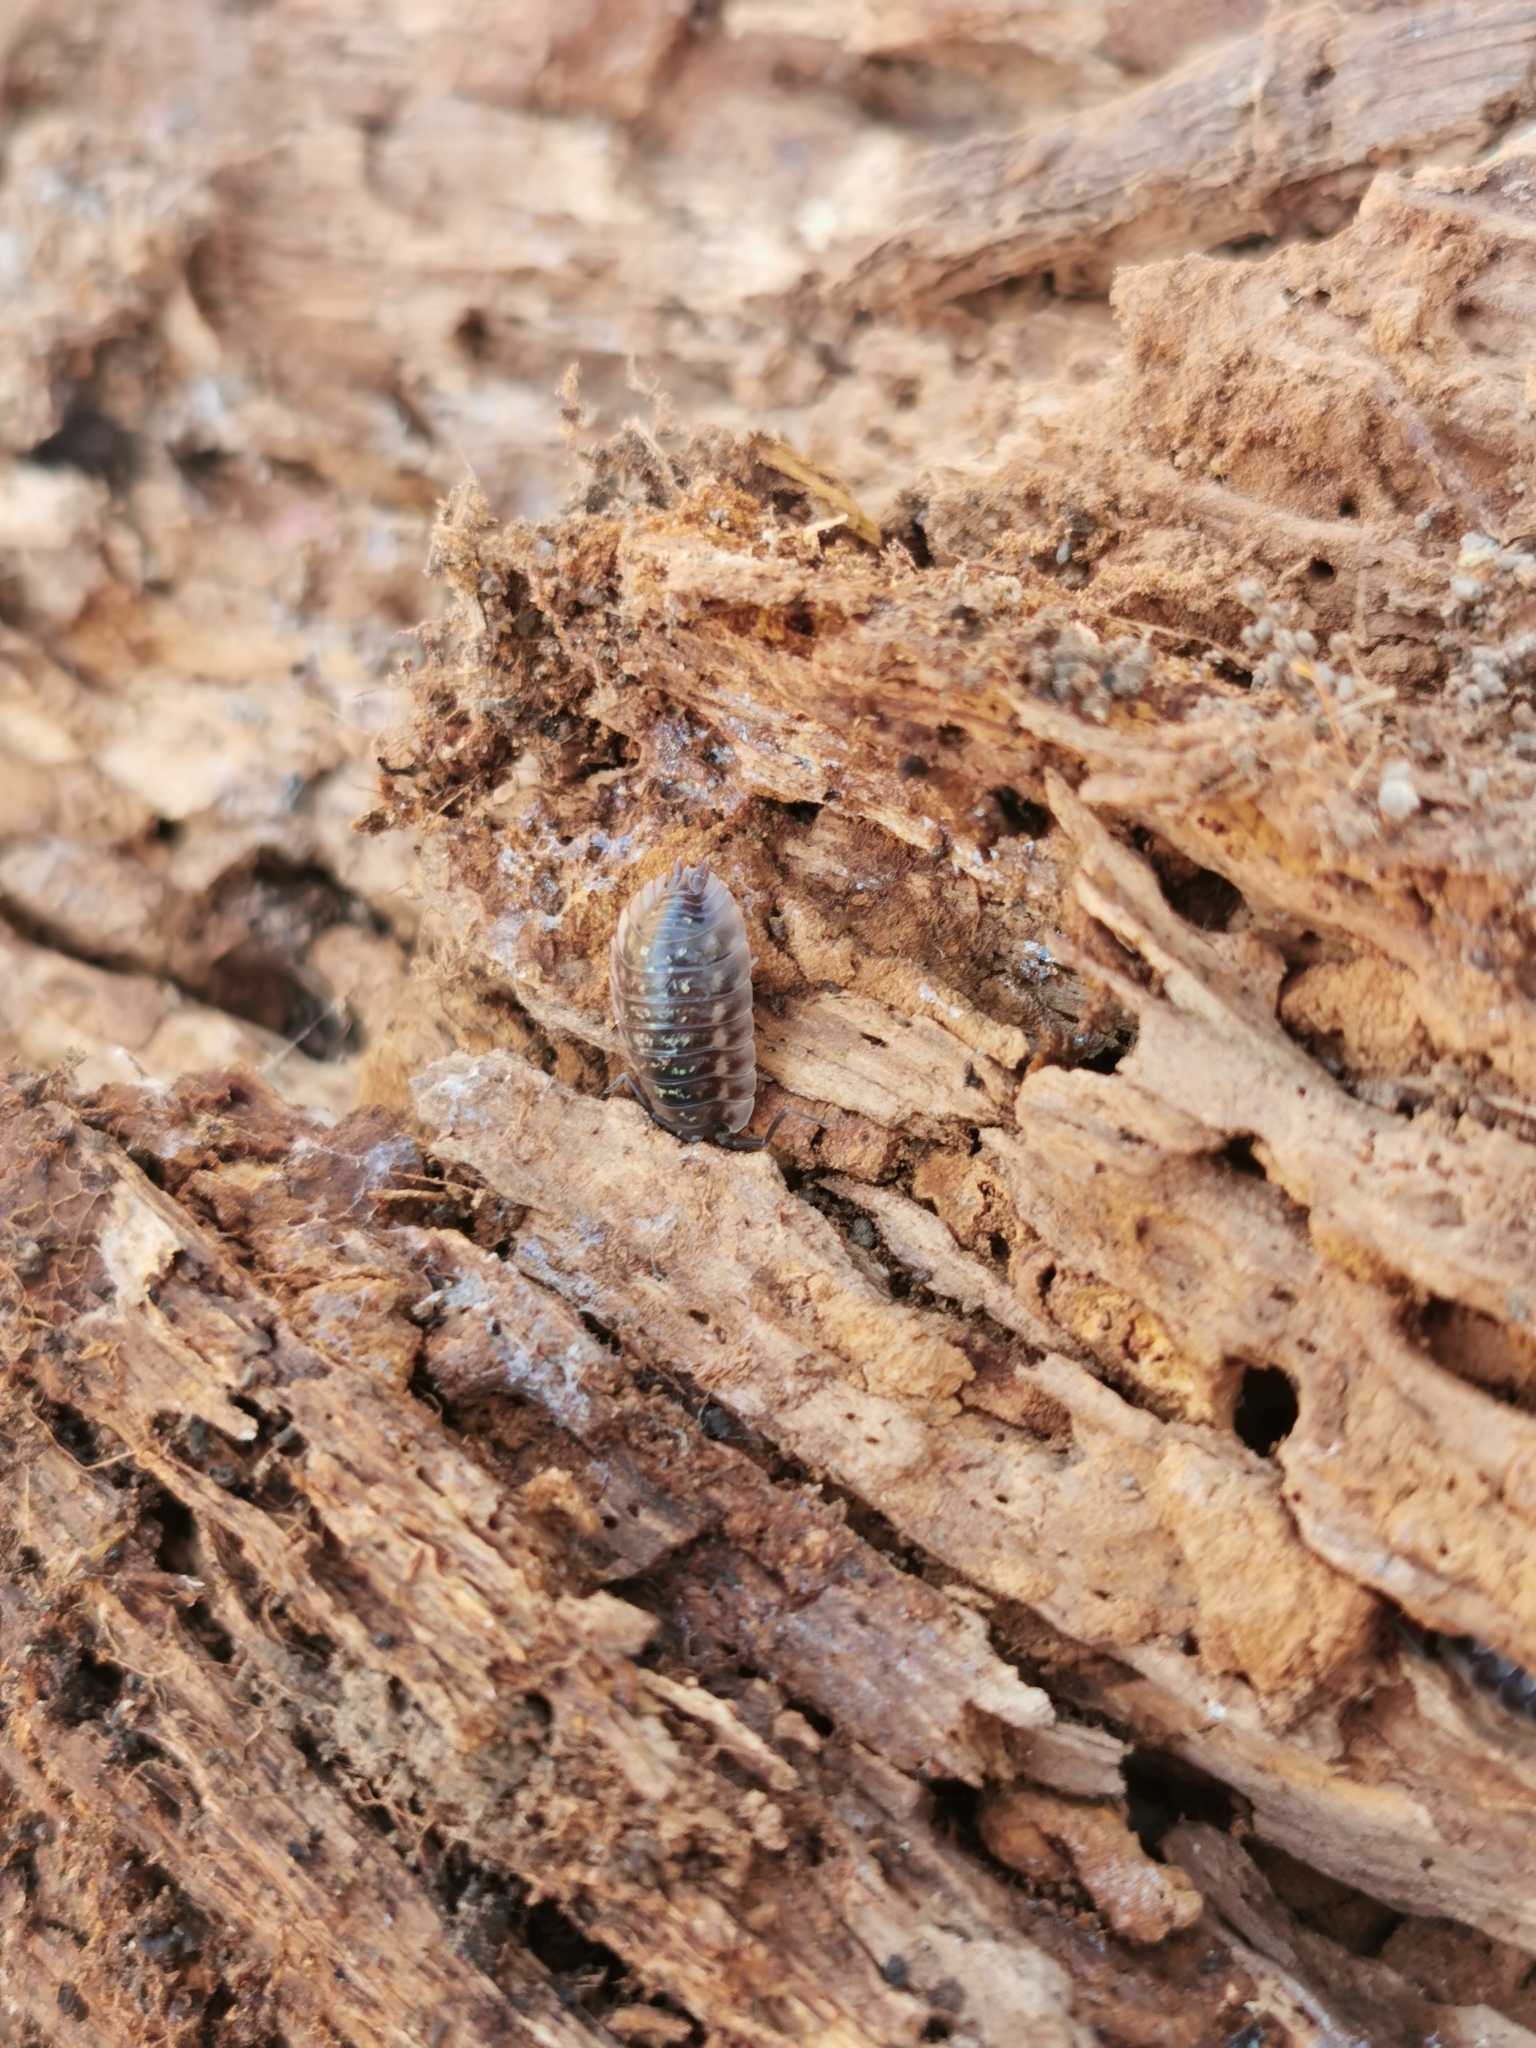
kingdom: Animalia
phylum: Arthropoda
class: Malacostraca
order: Isopoda
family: Oniscidae
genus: Oniscus
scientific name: Oniscus asellus
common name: Common shiny woodlouse
